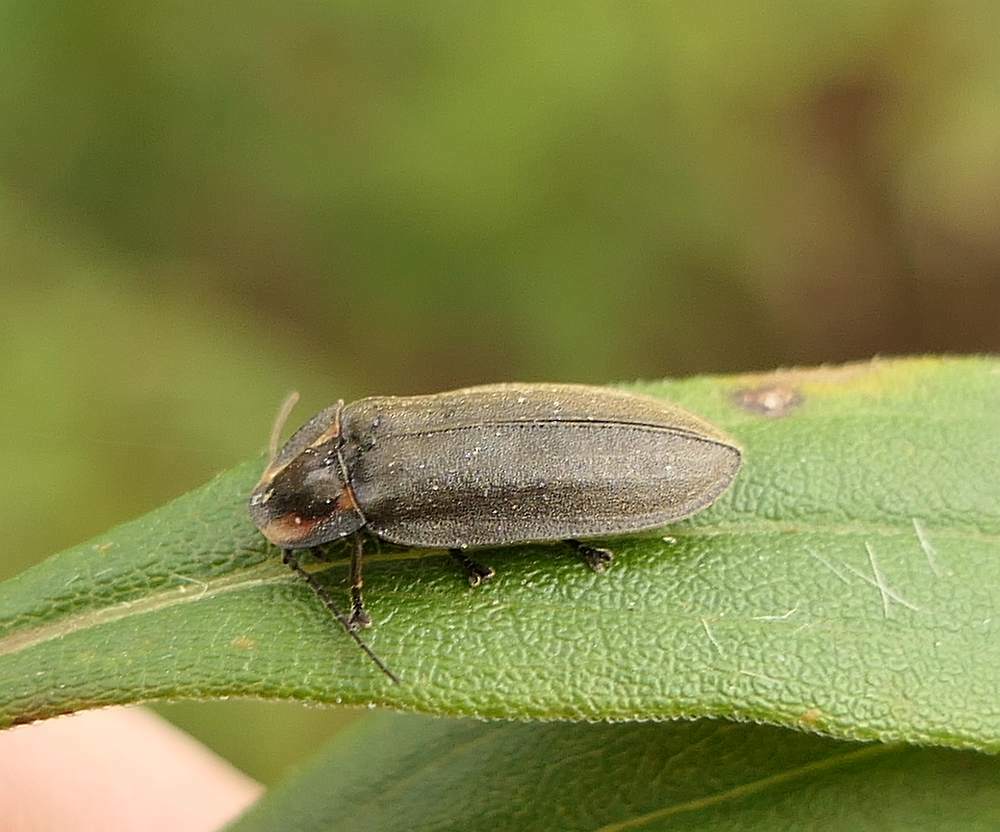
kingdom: Animalia
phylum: Arthropoda
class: Insecta
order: Coleoptera
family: Lampyridae
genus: Photinus
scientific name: Photinus corrusca
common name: Winter firefly
